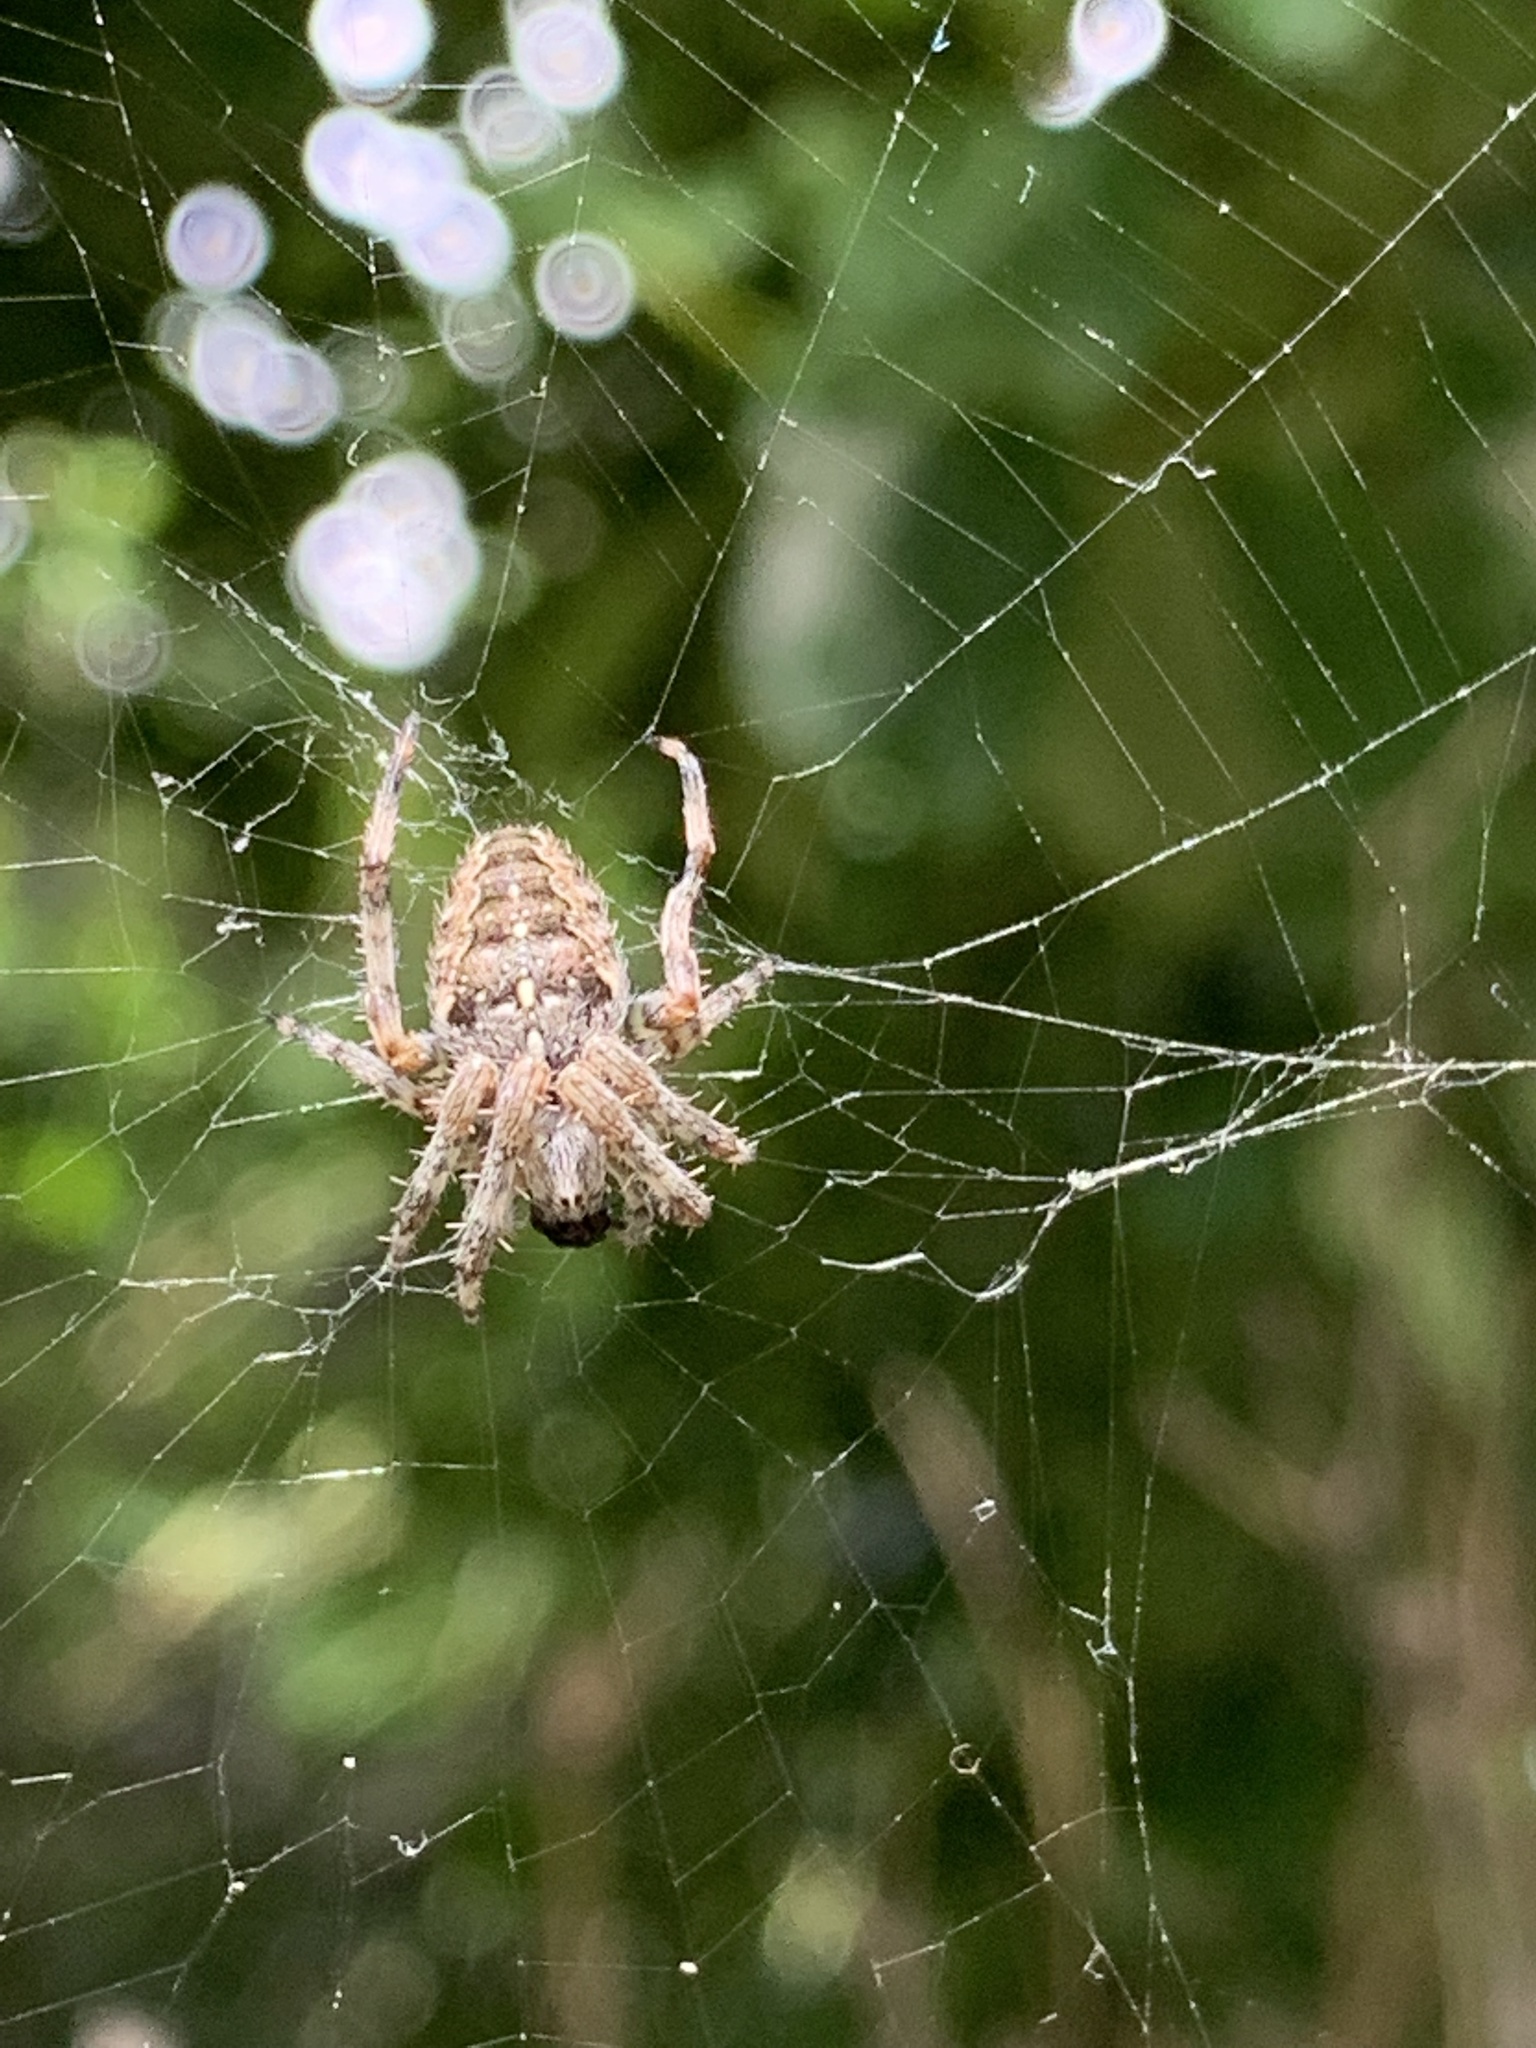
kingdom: Animalia
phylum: Arthropoda
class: Arachnida
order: Araneae
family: Araneidae
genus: Araneus
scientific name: Araneus diadematus
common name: Cross orbweaver
